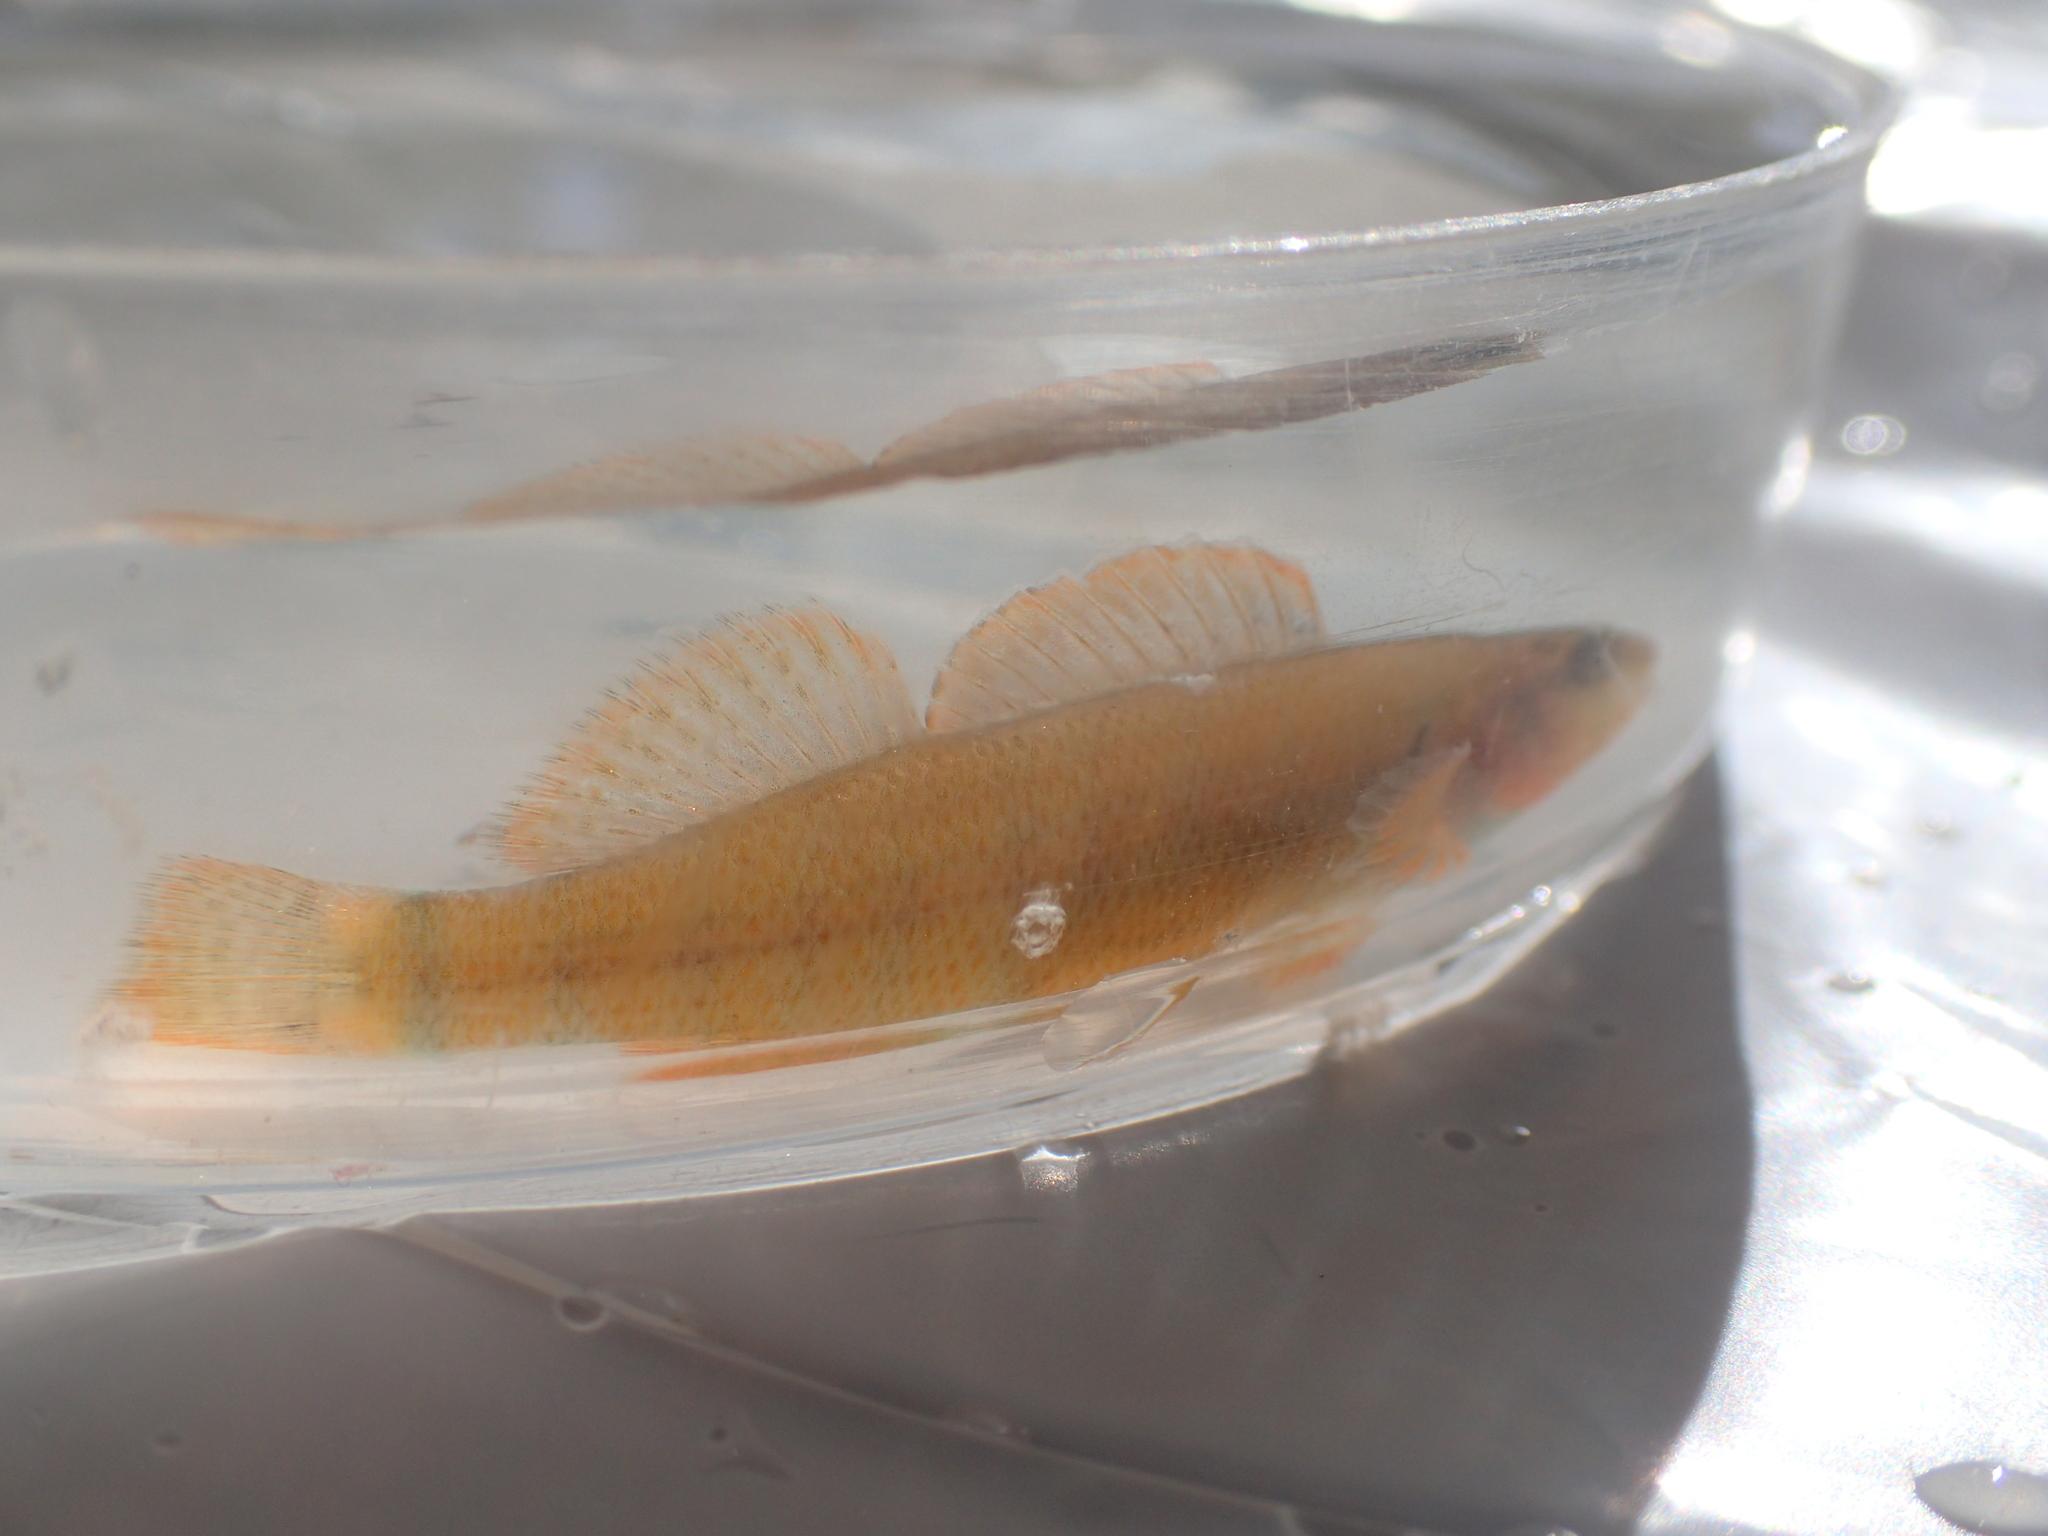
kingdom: Animalia
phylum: Chordata
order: Perciformes
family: Percidae
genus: Etheostoma
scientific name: Etheostoma tippecanoe
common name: Tippecanoe darter
